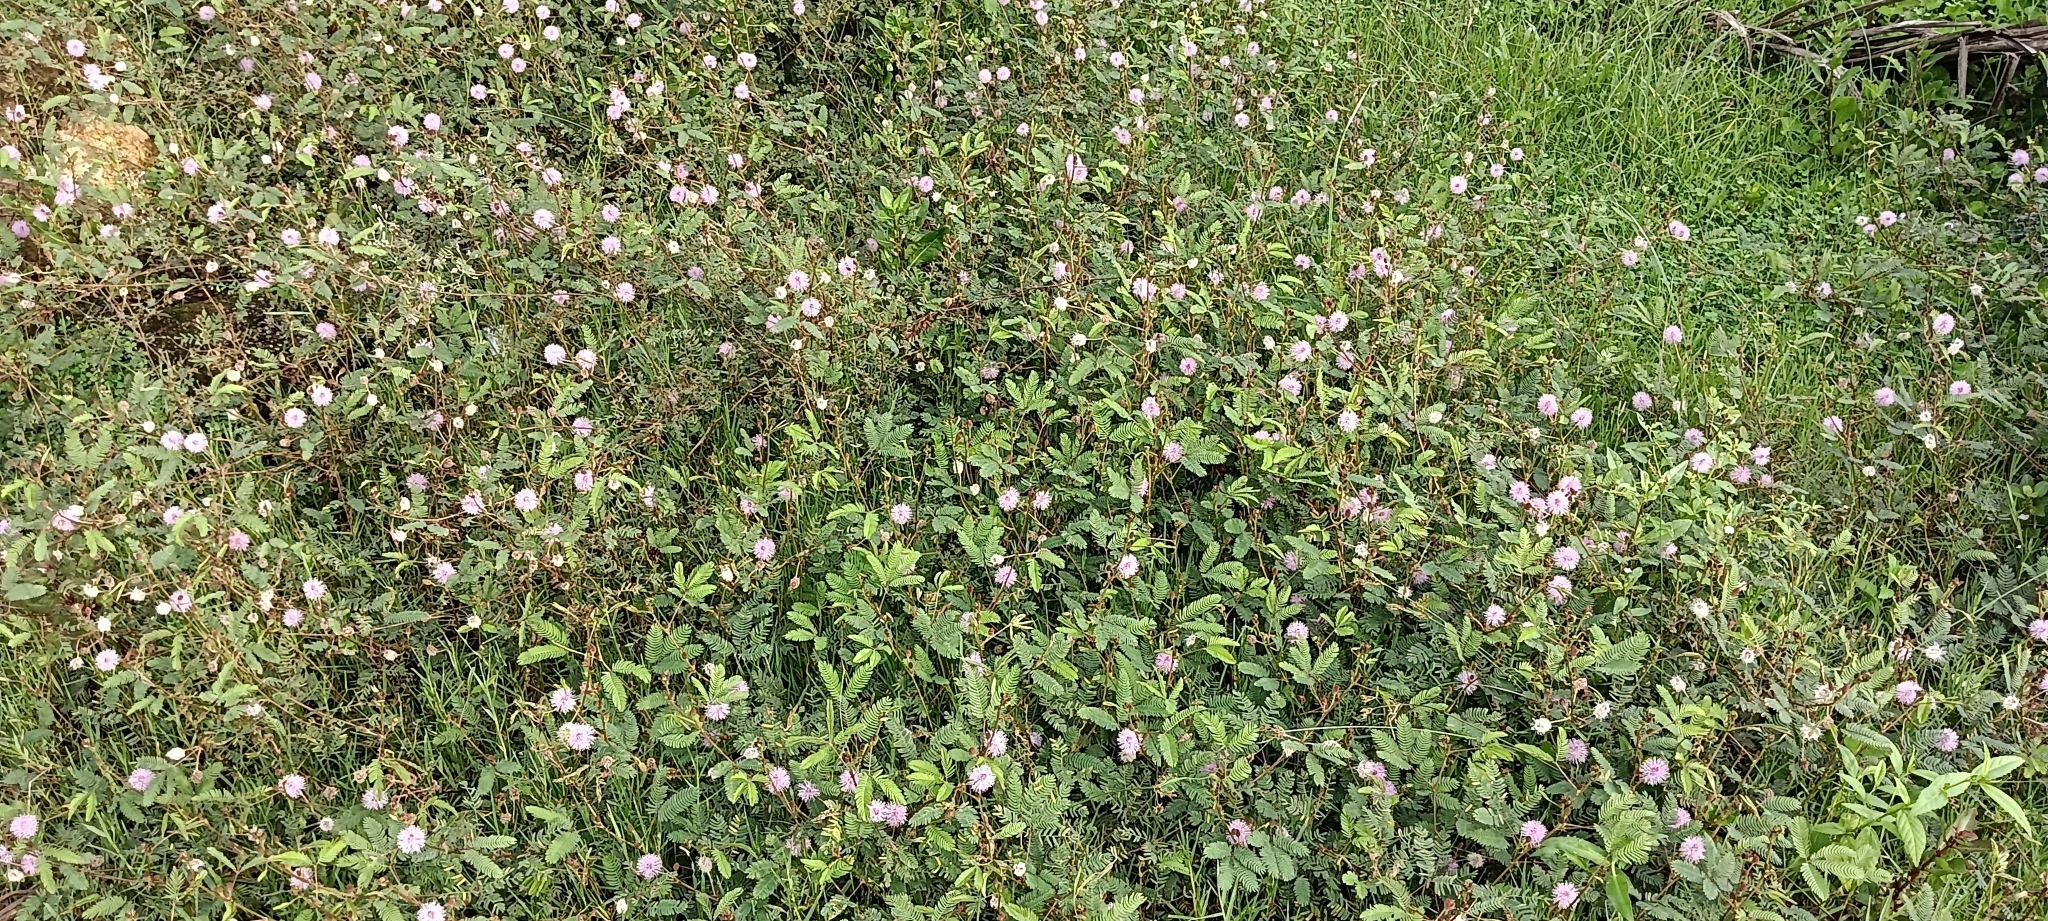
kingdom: Plantae
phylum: Tracheophyta
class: Magnoliopsida
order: Fabales
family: Fabaceae
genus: Mimosa
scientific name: Mimosa pudica
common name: Sensitive plant
